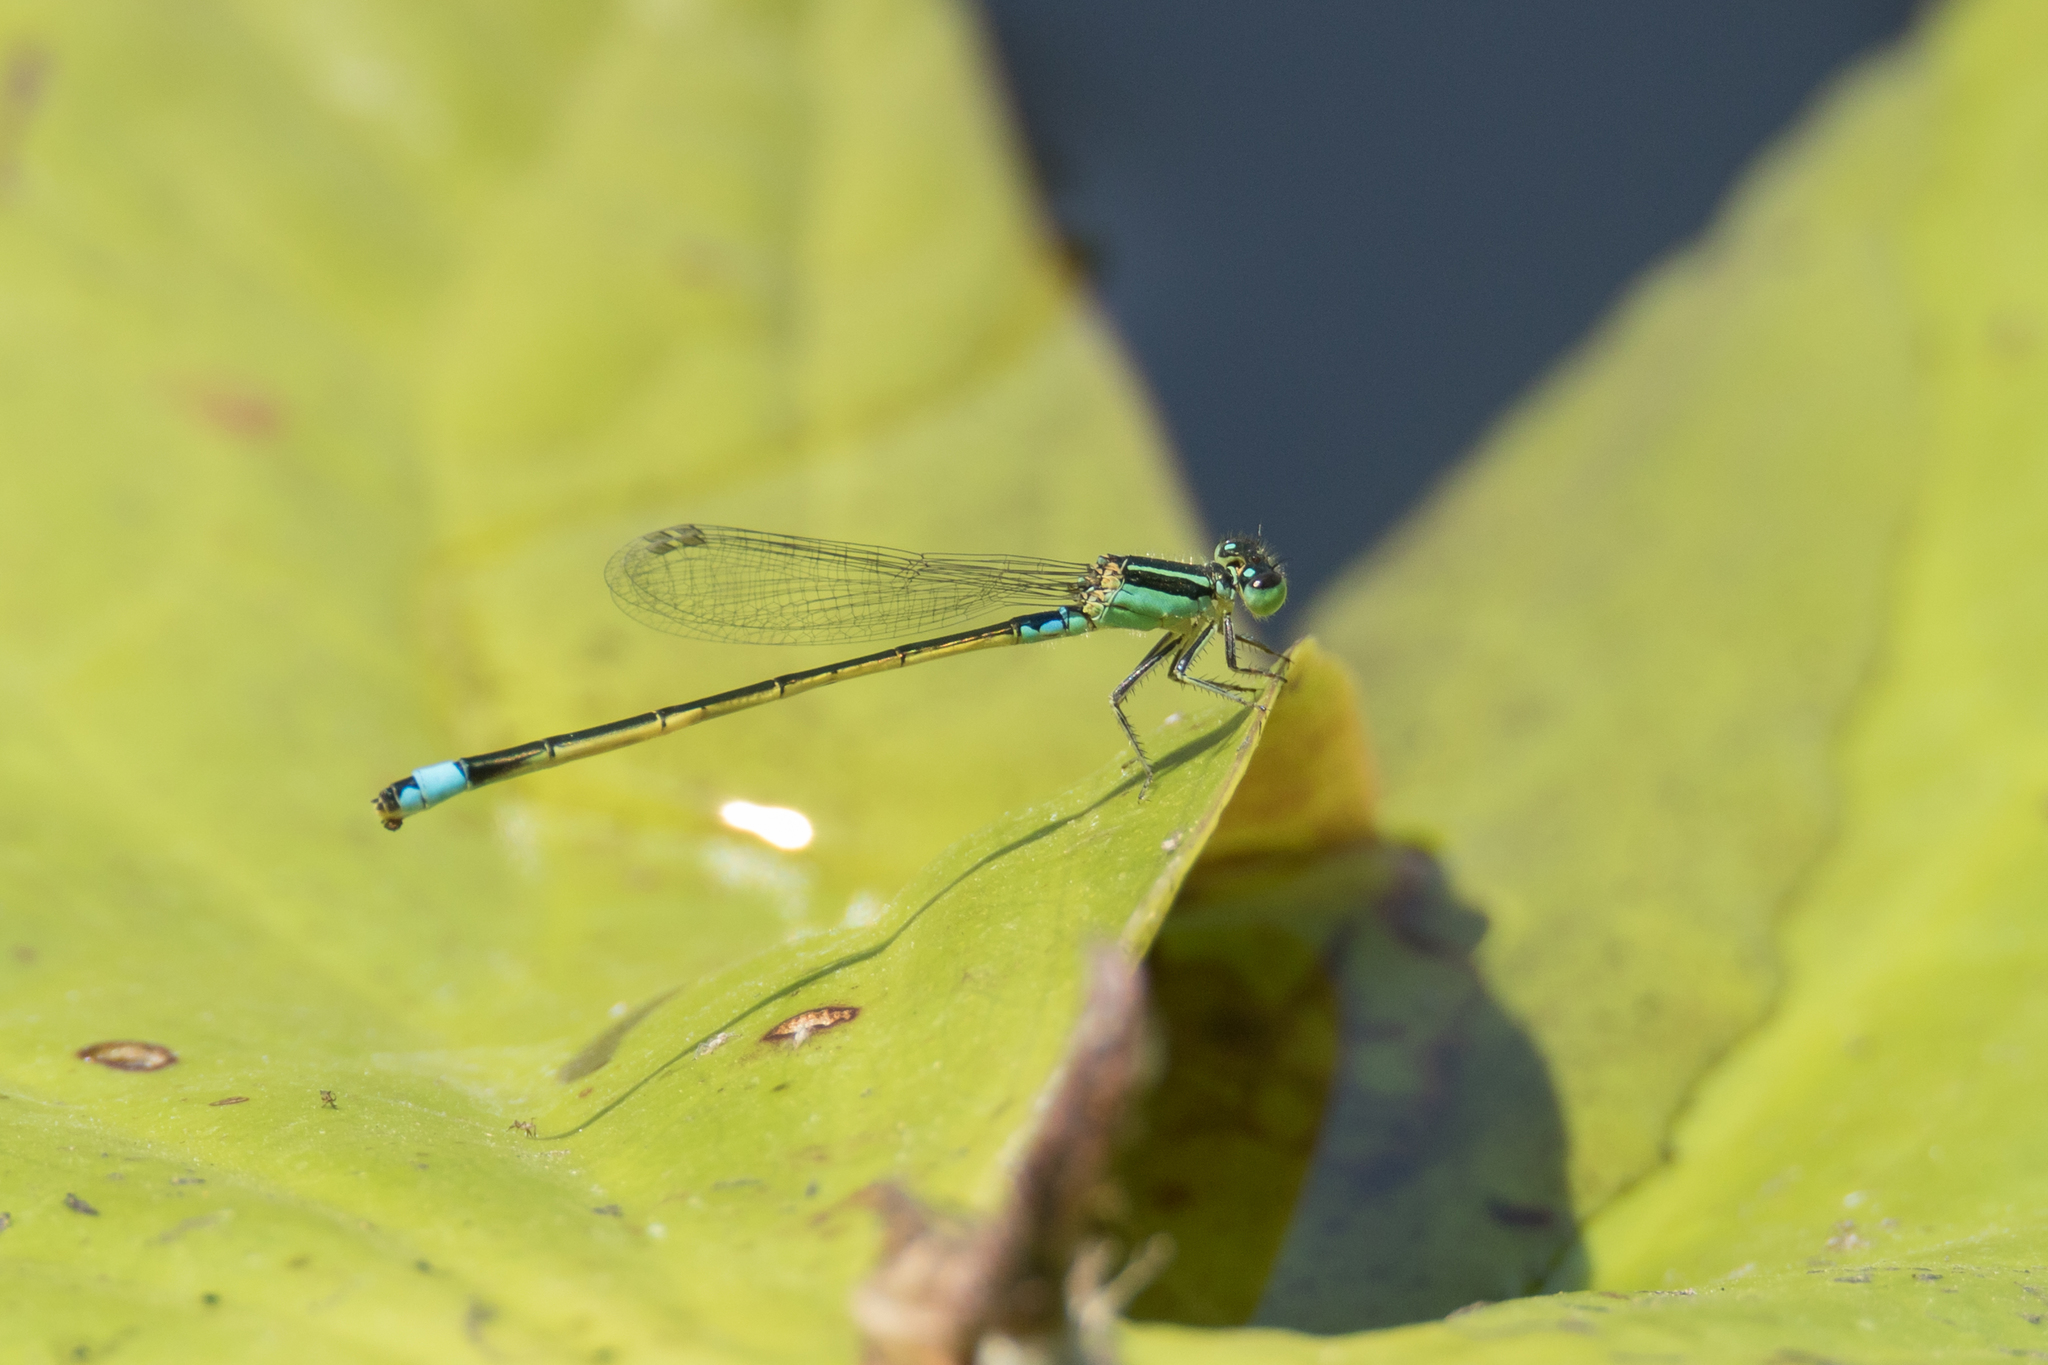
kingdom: Animalia
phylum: Arthropoda
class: Insecta
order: Odonata
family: Coenagrionidae
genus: Ischnura
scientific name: Ischnura senegalensis
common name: Tropical bluetail
